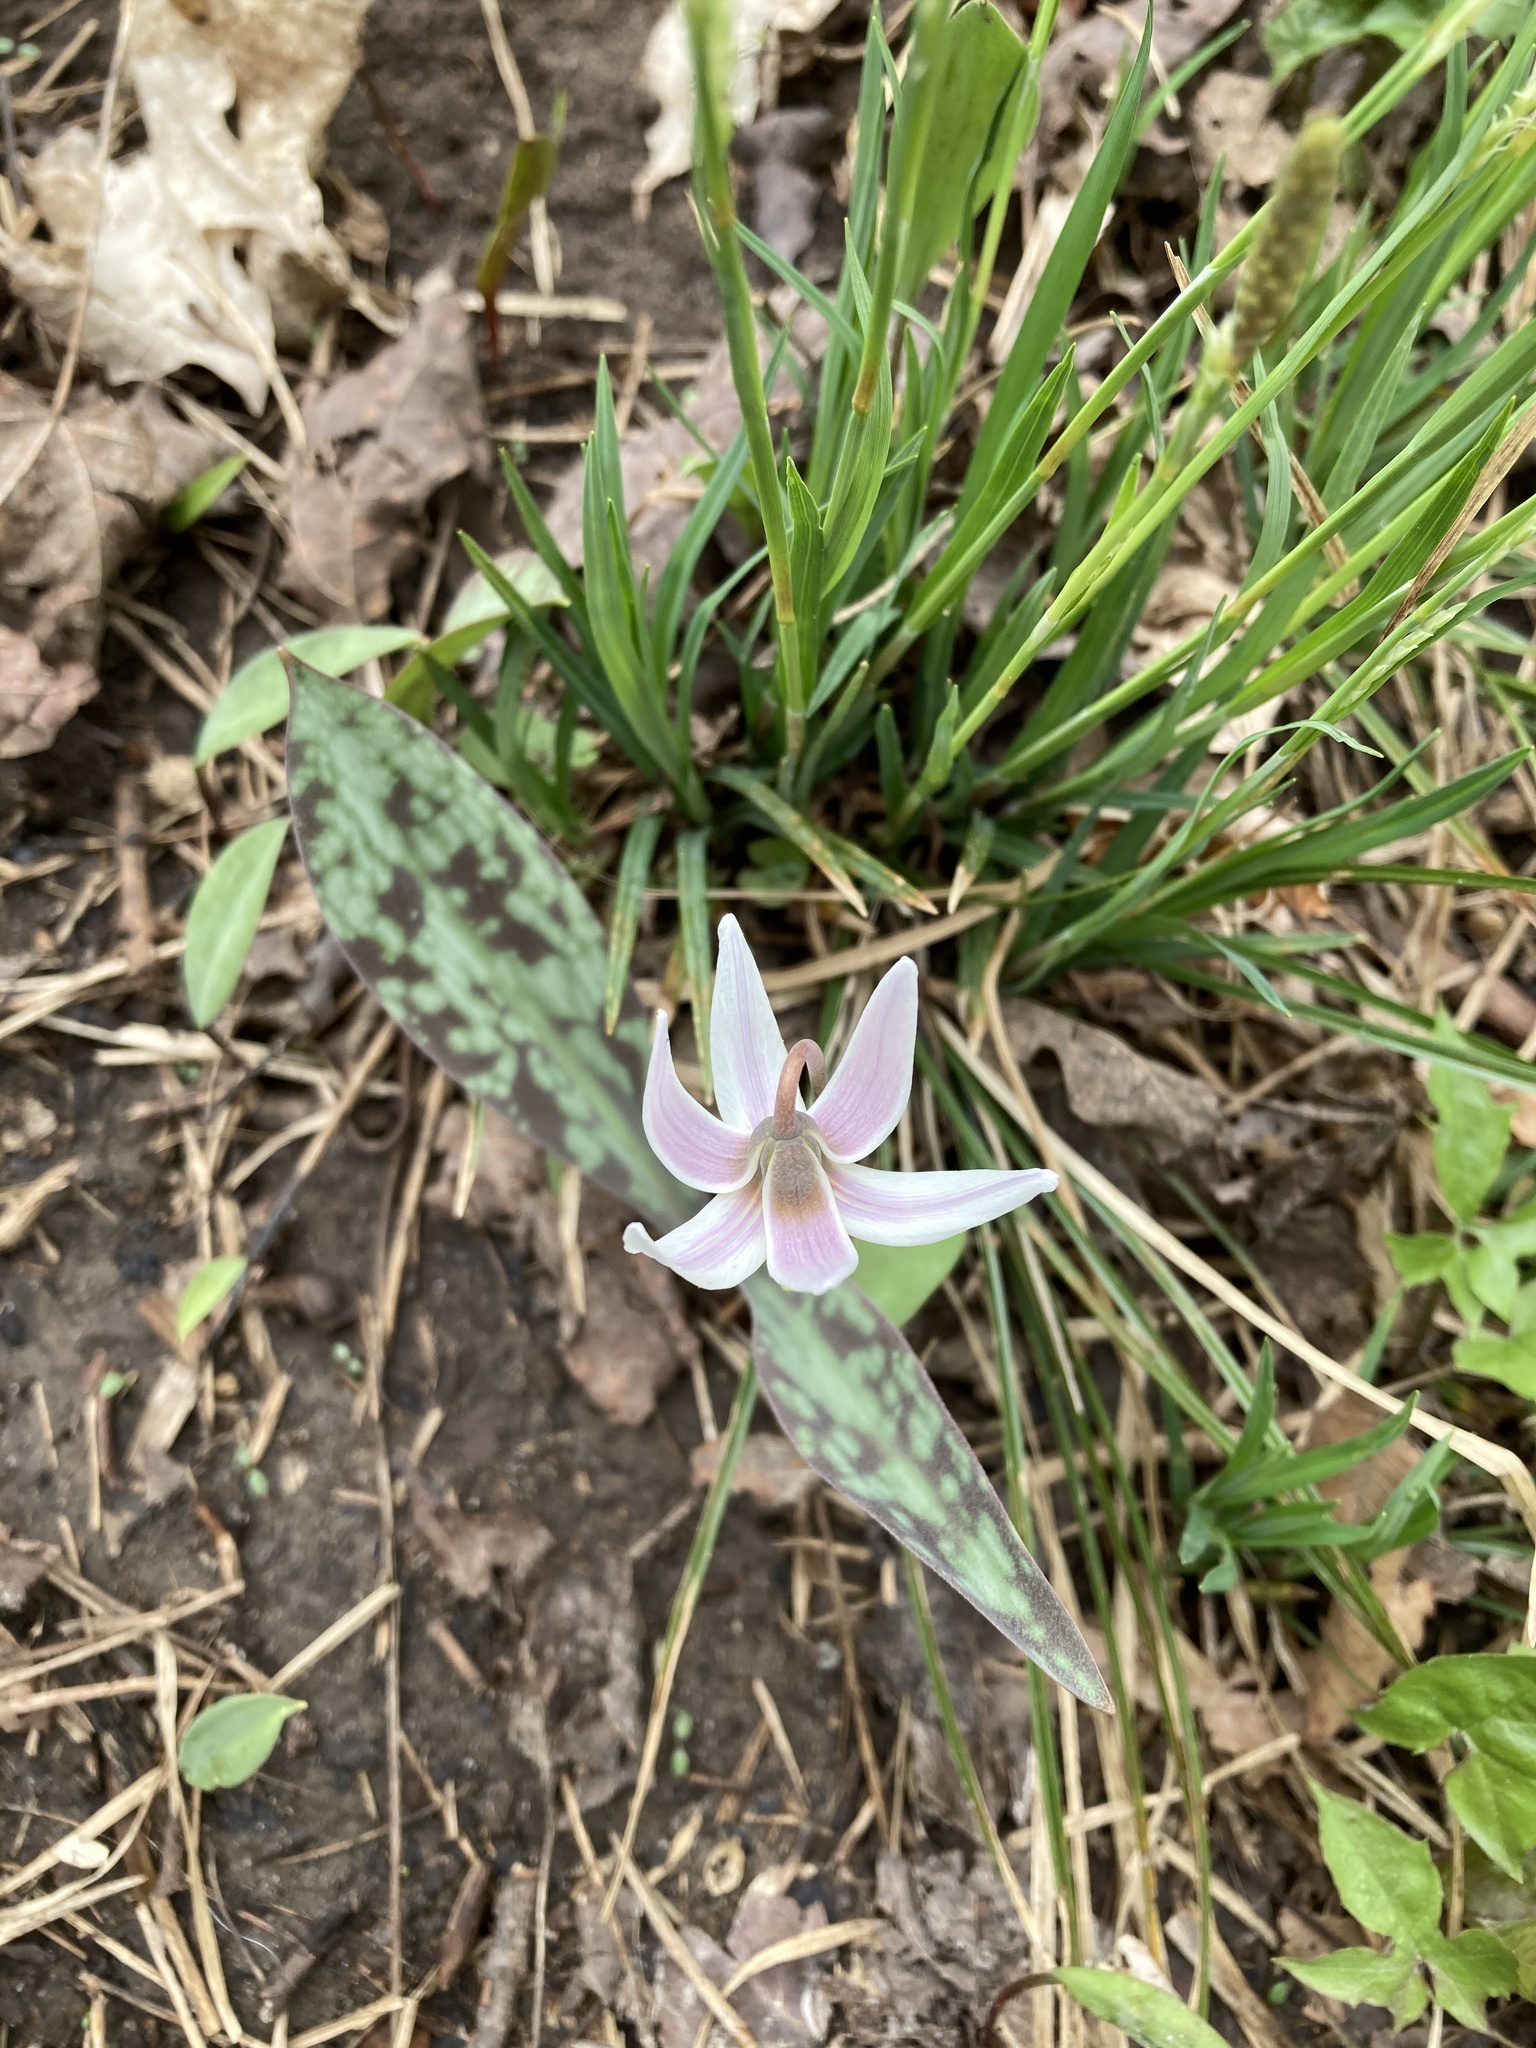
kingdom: Plantae
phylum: Tracheophyta
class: Liliopsida
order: Liliales
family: Liliaceae
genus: Erythronium
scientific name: Erythronium albidum
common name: White trout-lily
